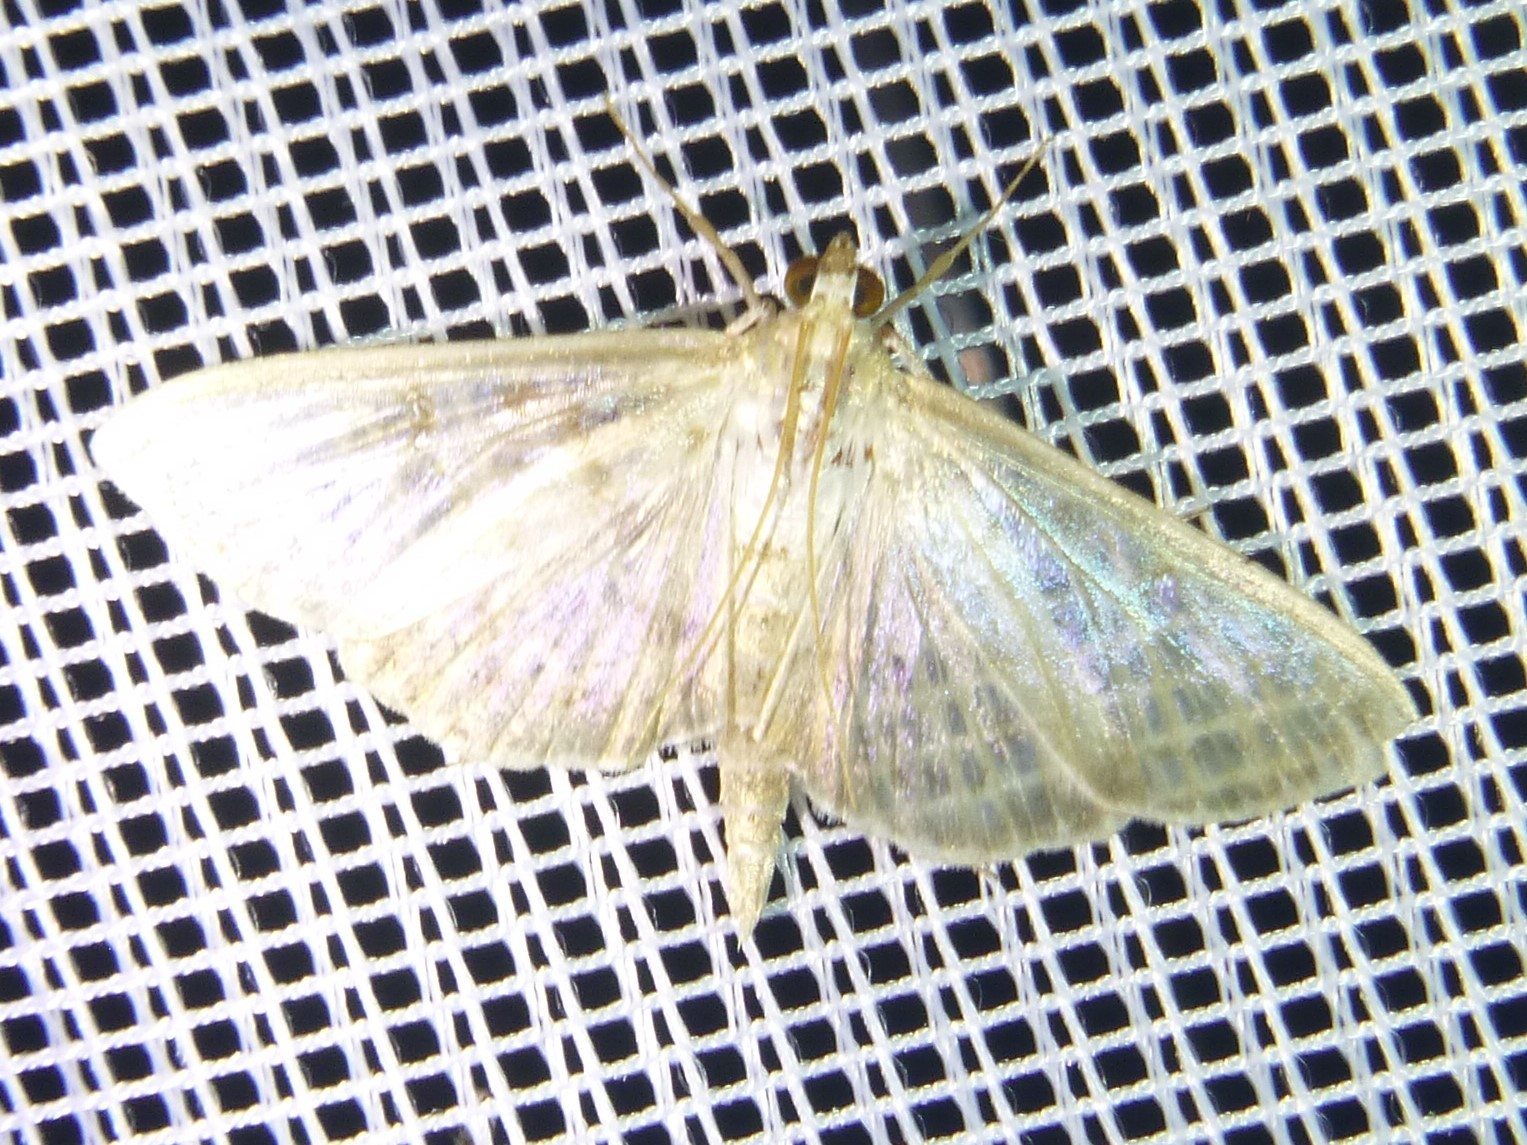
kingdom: Animalia
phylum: Arthropoda
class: Insecta
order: Lepidoptera
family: Crambidae
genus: Patania
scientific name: Patania ruralis
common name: Mother of pearl
